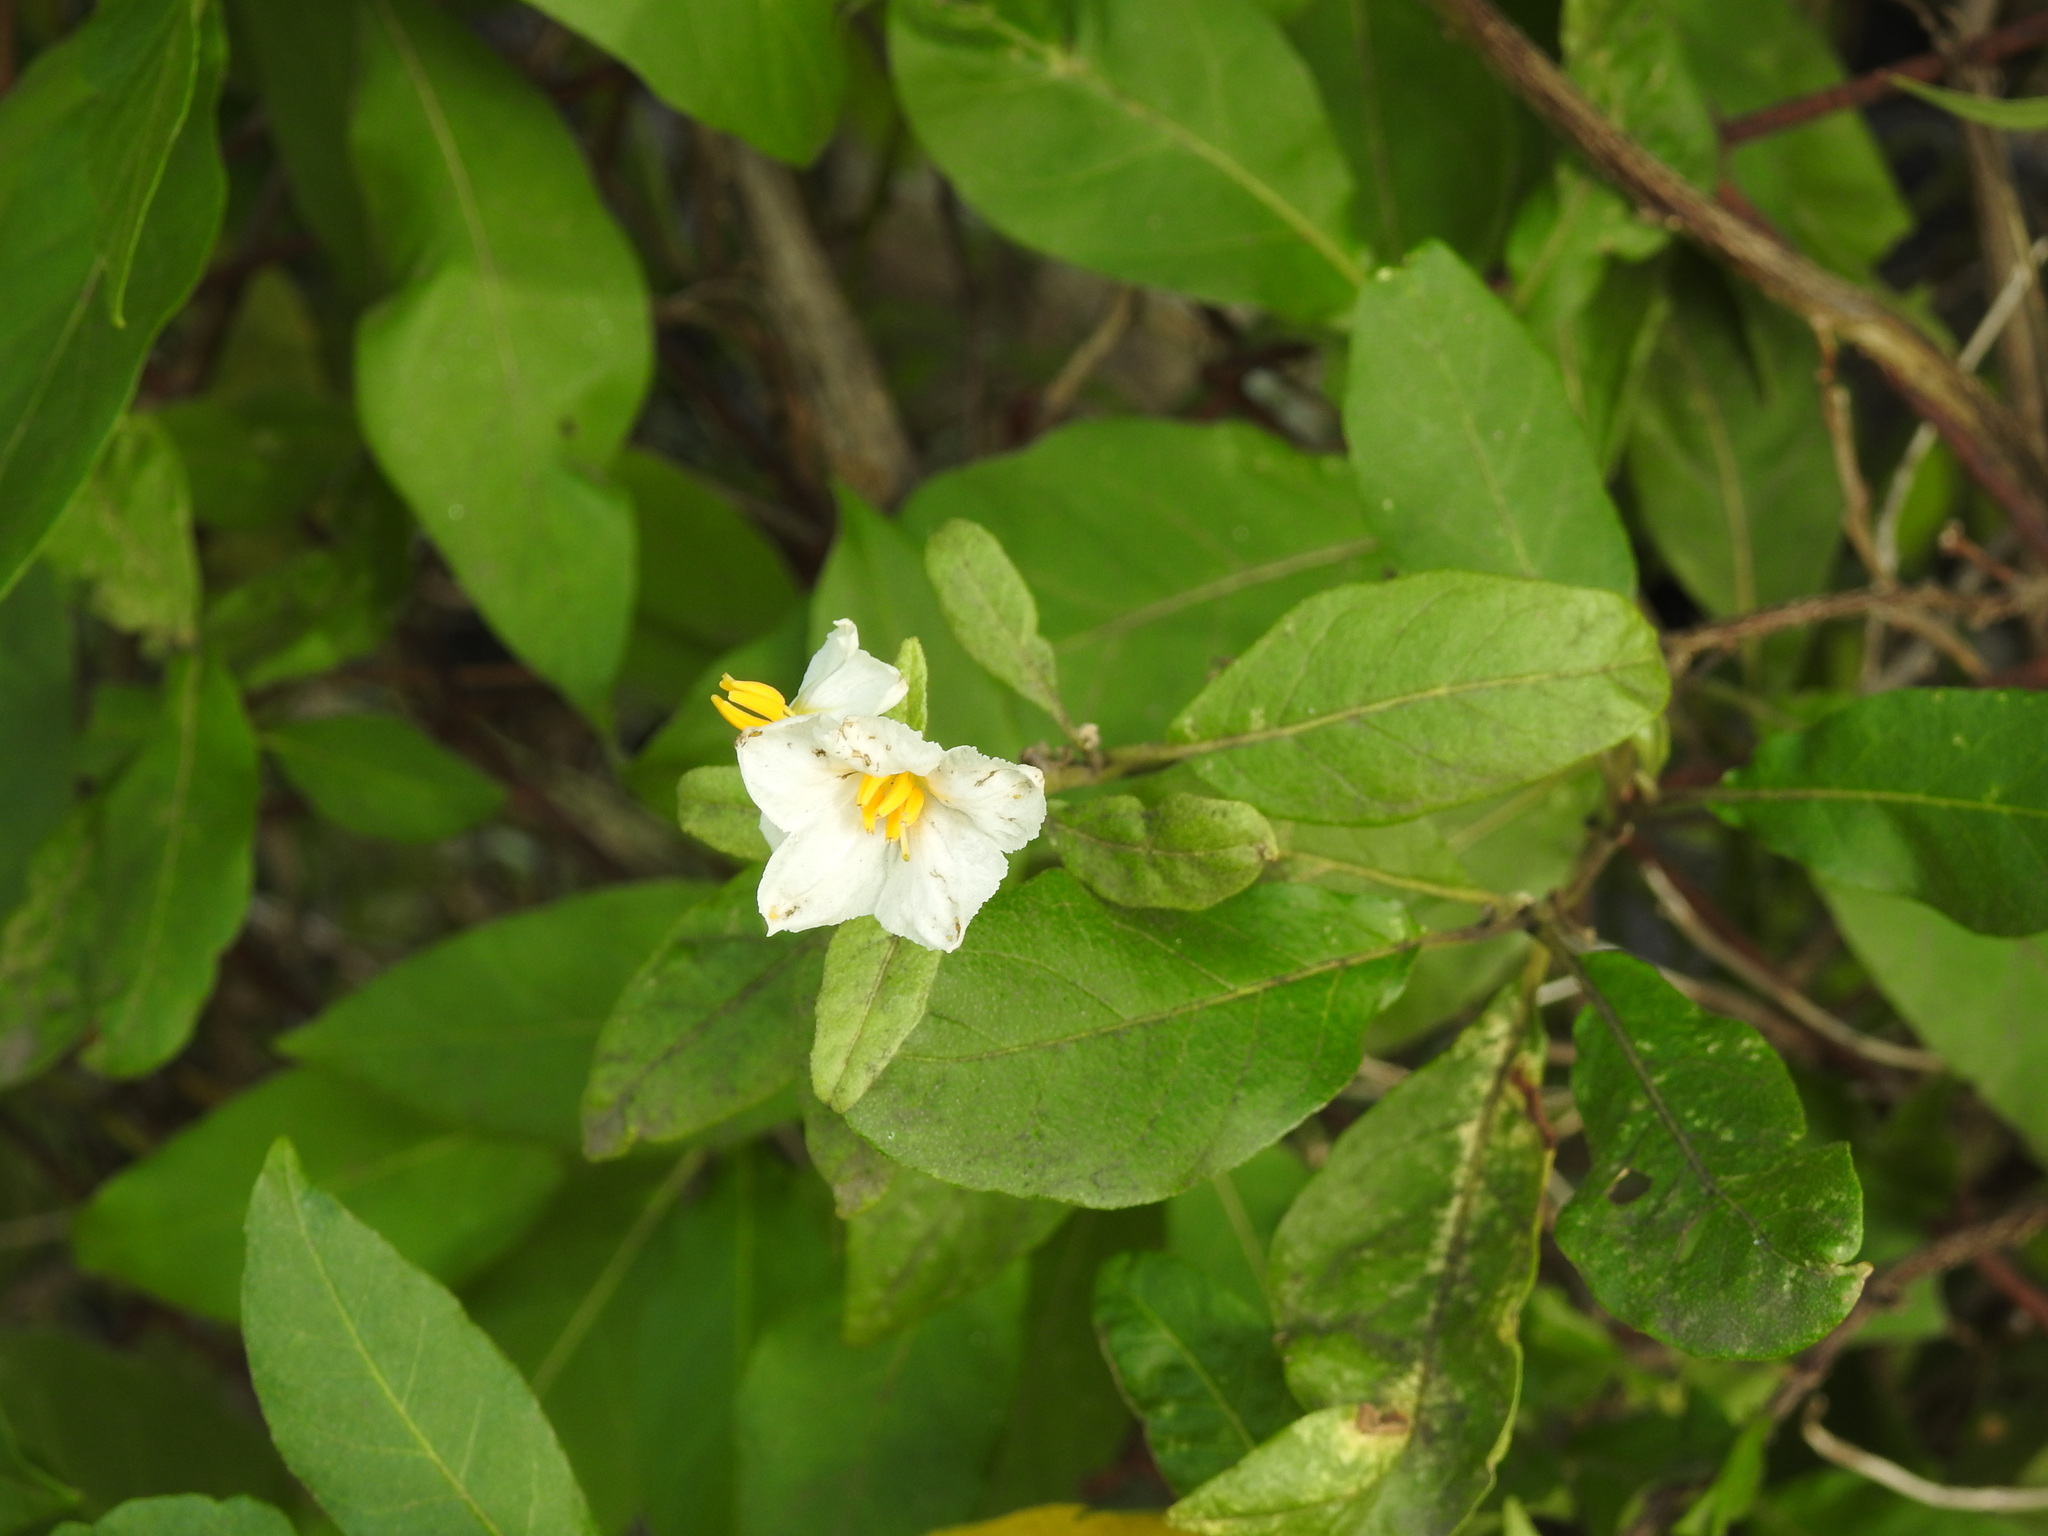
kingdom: Plantae
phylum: Tracheophyta
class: Magnoliopsida
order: Solanales
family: Solanaceae
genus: Solanum
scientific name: Solanum bonariense
